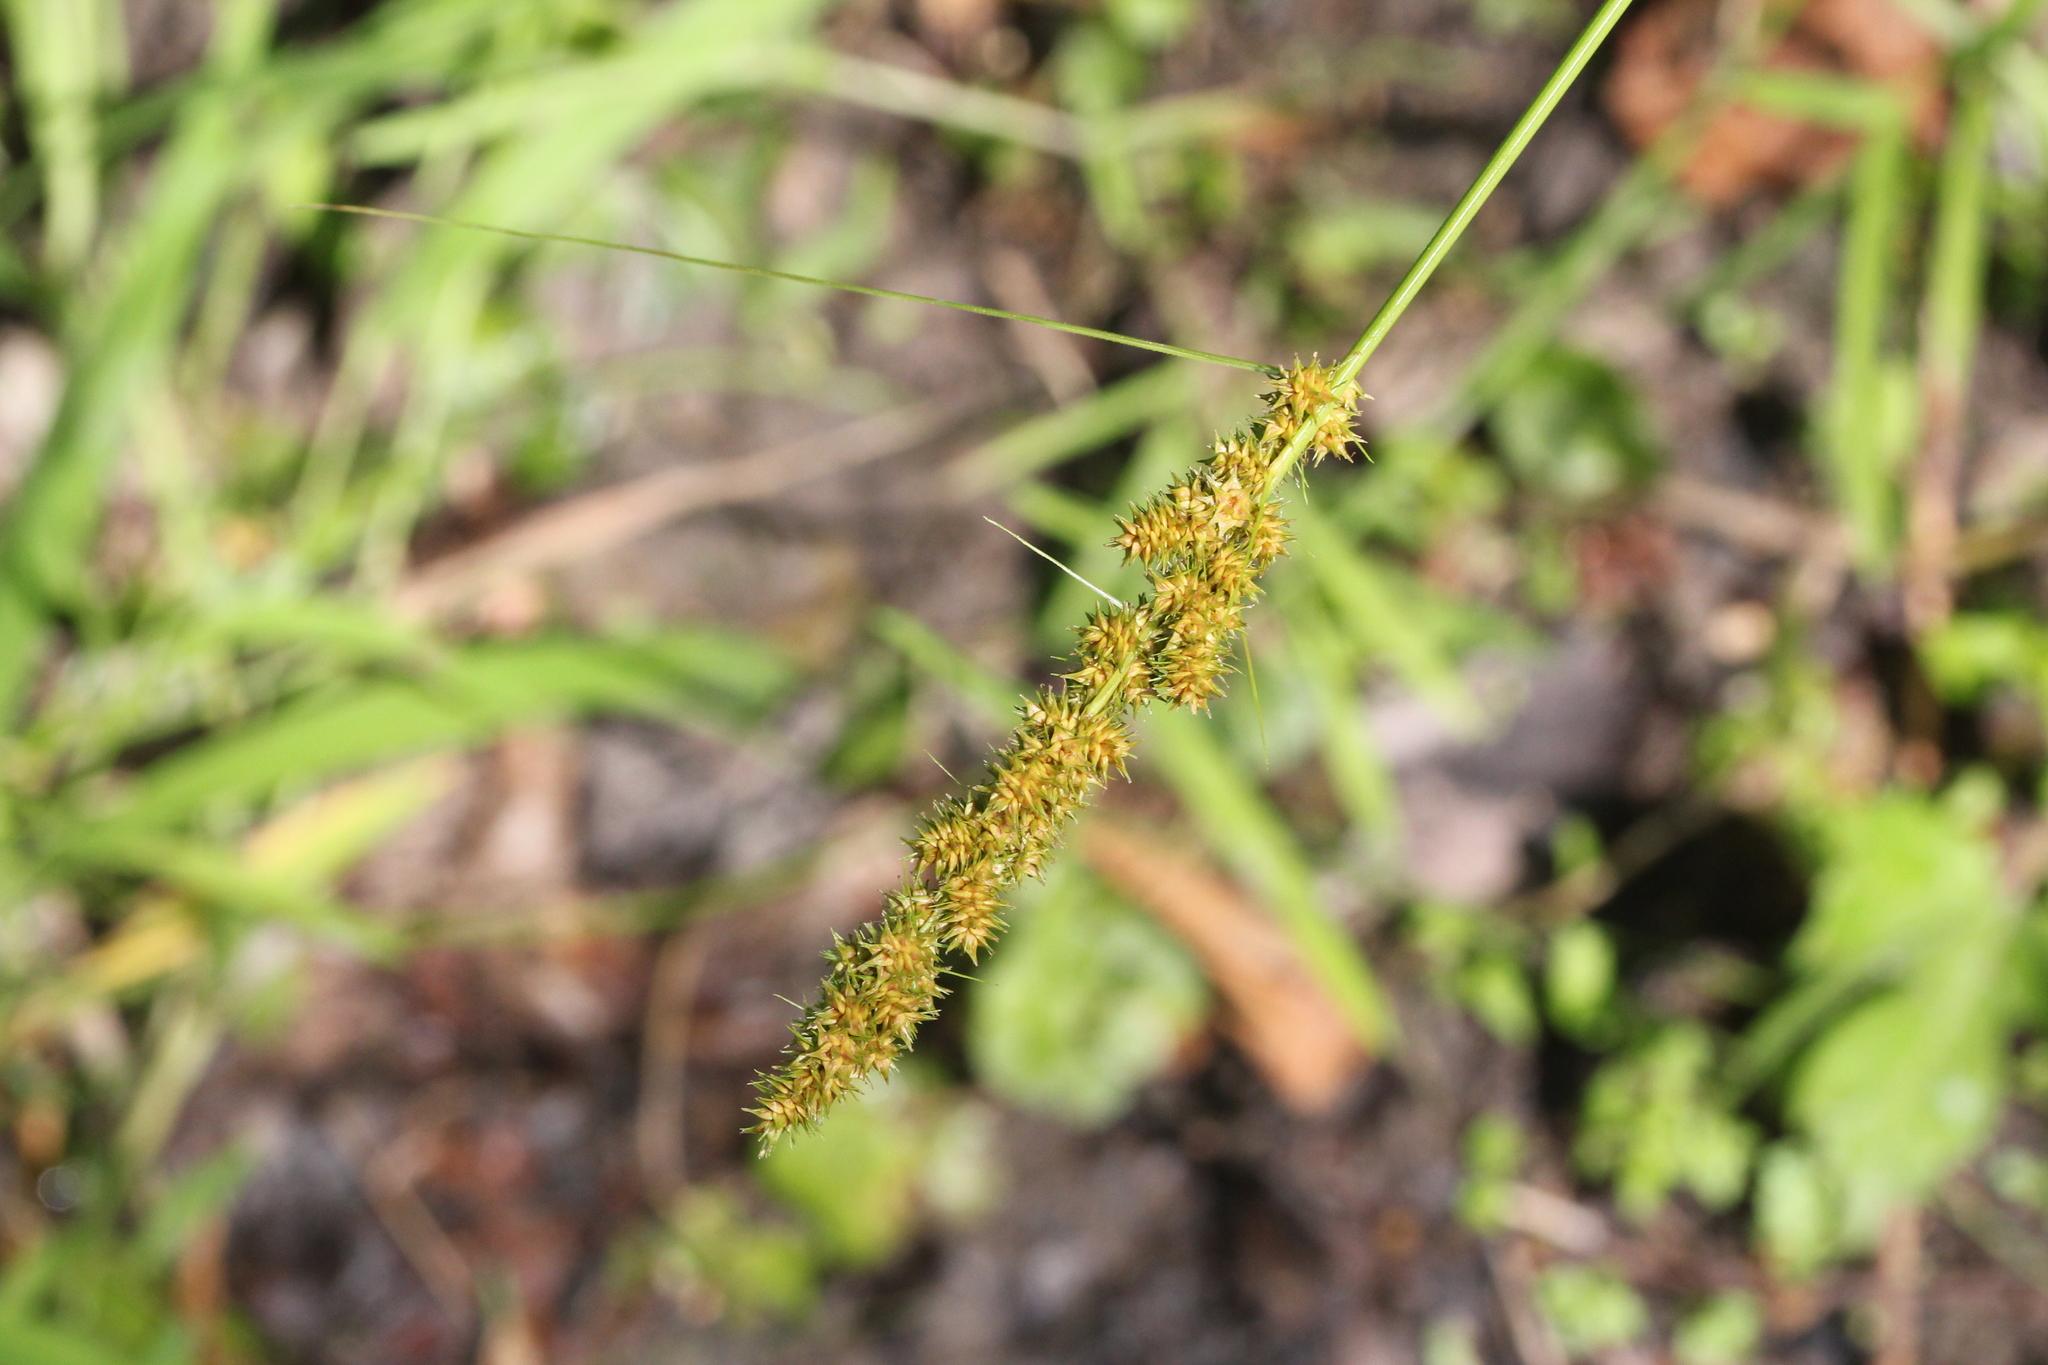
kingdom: Plantae
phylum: Tracheophyta
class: Liliopsida
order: Poales
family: Cyperaceae
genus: Carex
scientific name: Carex vulpinoidea
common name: American fox-sedge
